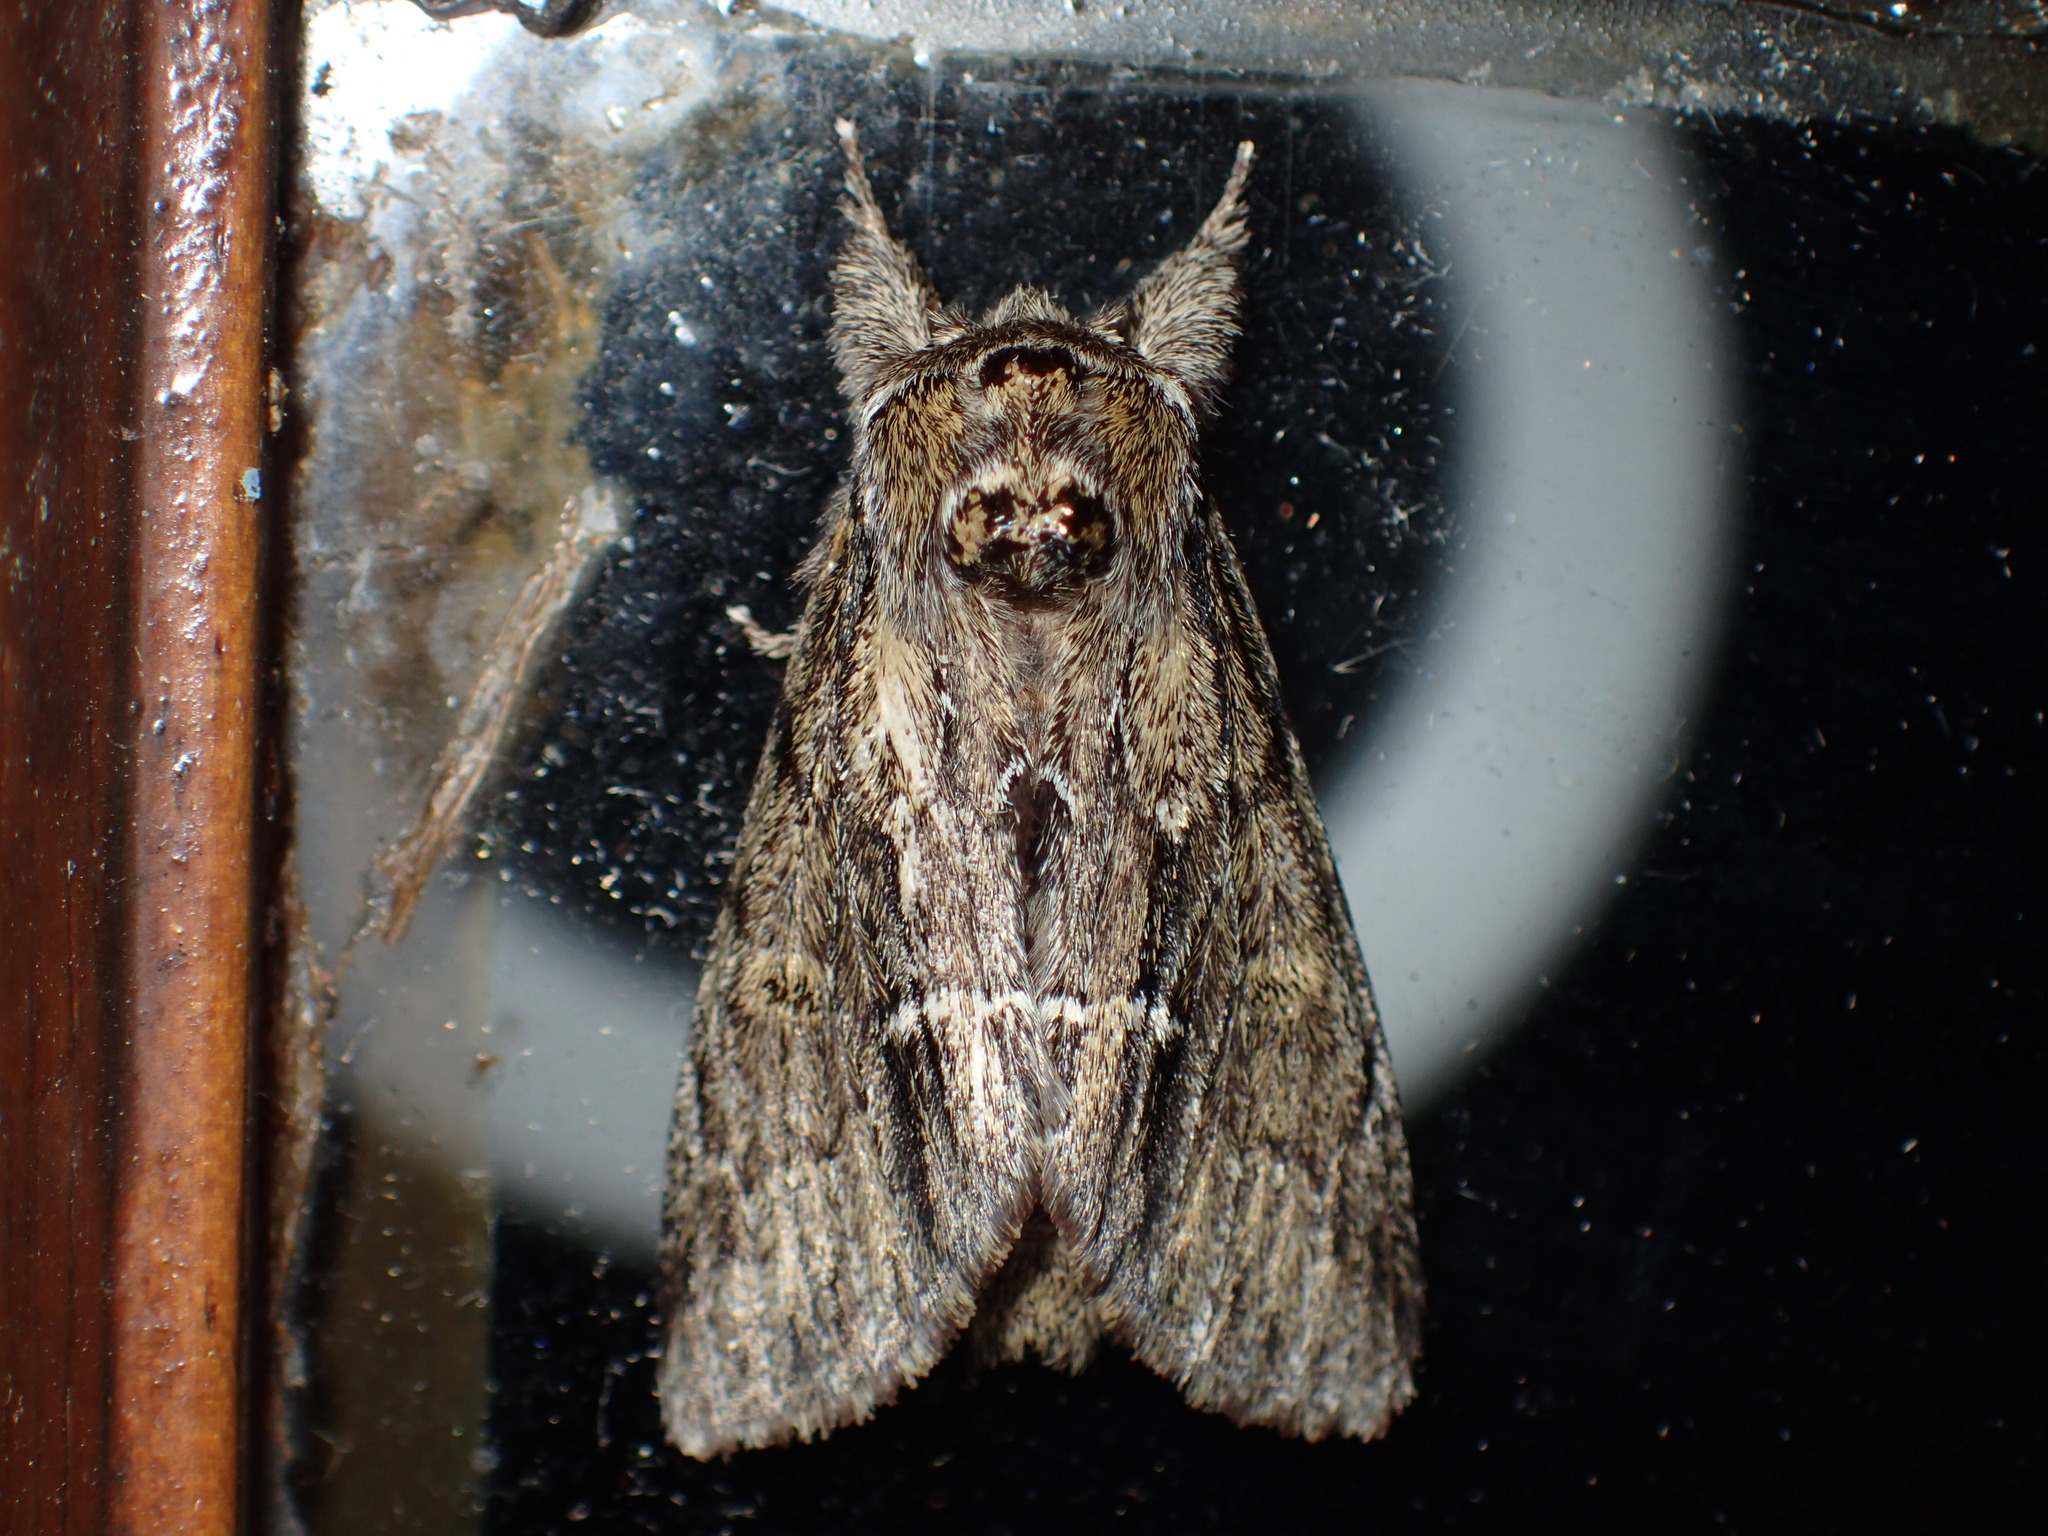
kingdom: Animalia
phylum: Arthropoda
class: Insecta
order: Lepidoptera
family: Notodontidae
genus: Paraeschra
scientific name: Paraeschra georgica
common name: Georgian prominent
